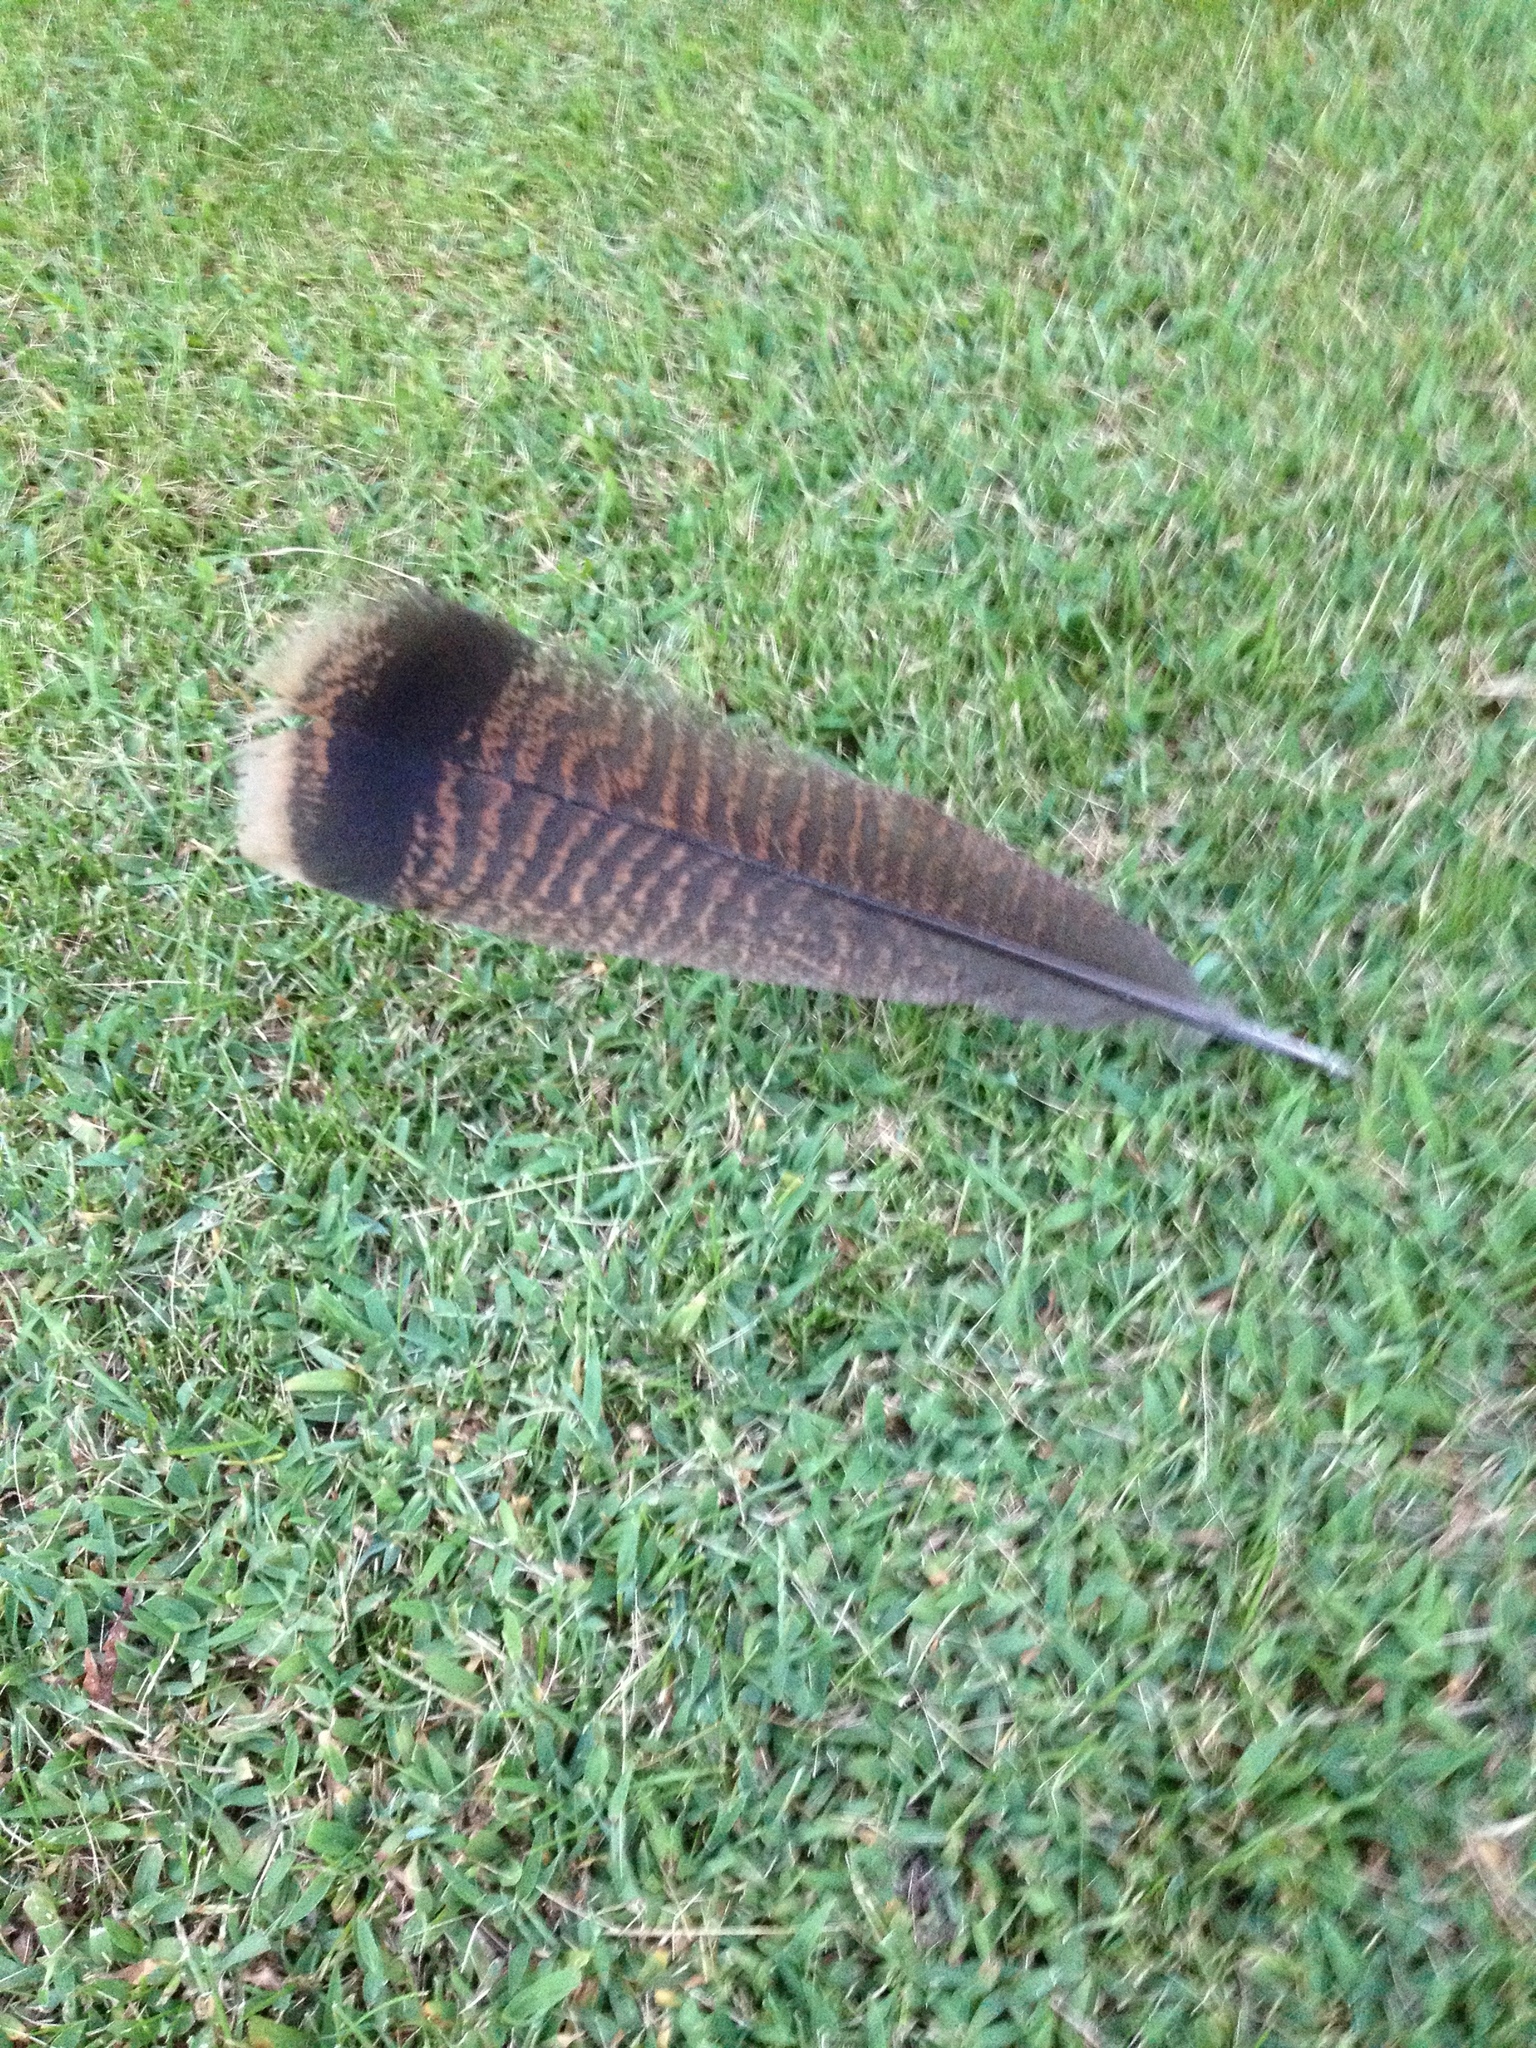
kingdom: Animalia
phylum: Chordata
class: Aves
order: Galliformes
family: Phasianidae
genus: Meleagris
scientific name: Meleagris gallopavo
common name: Wild turkey
